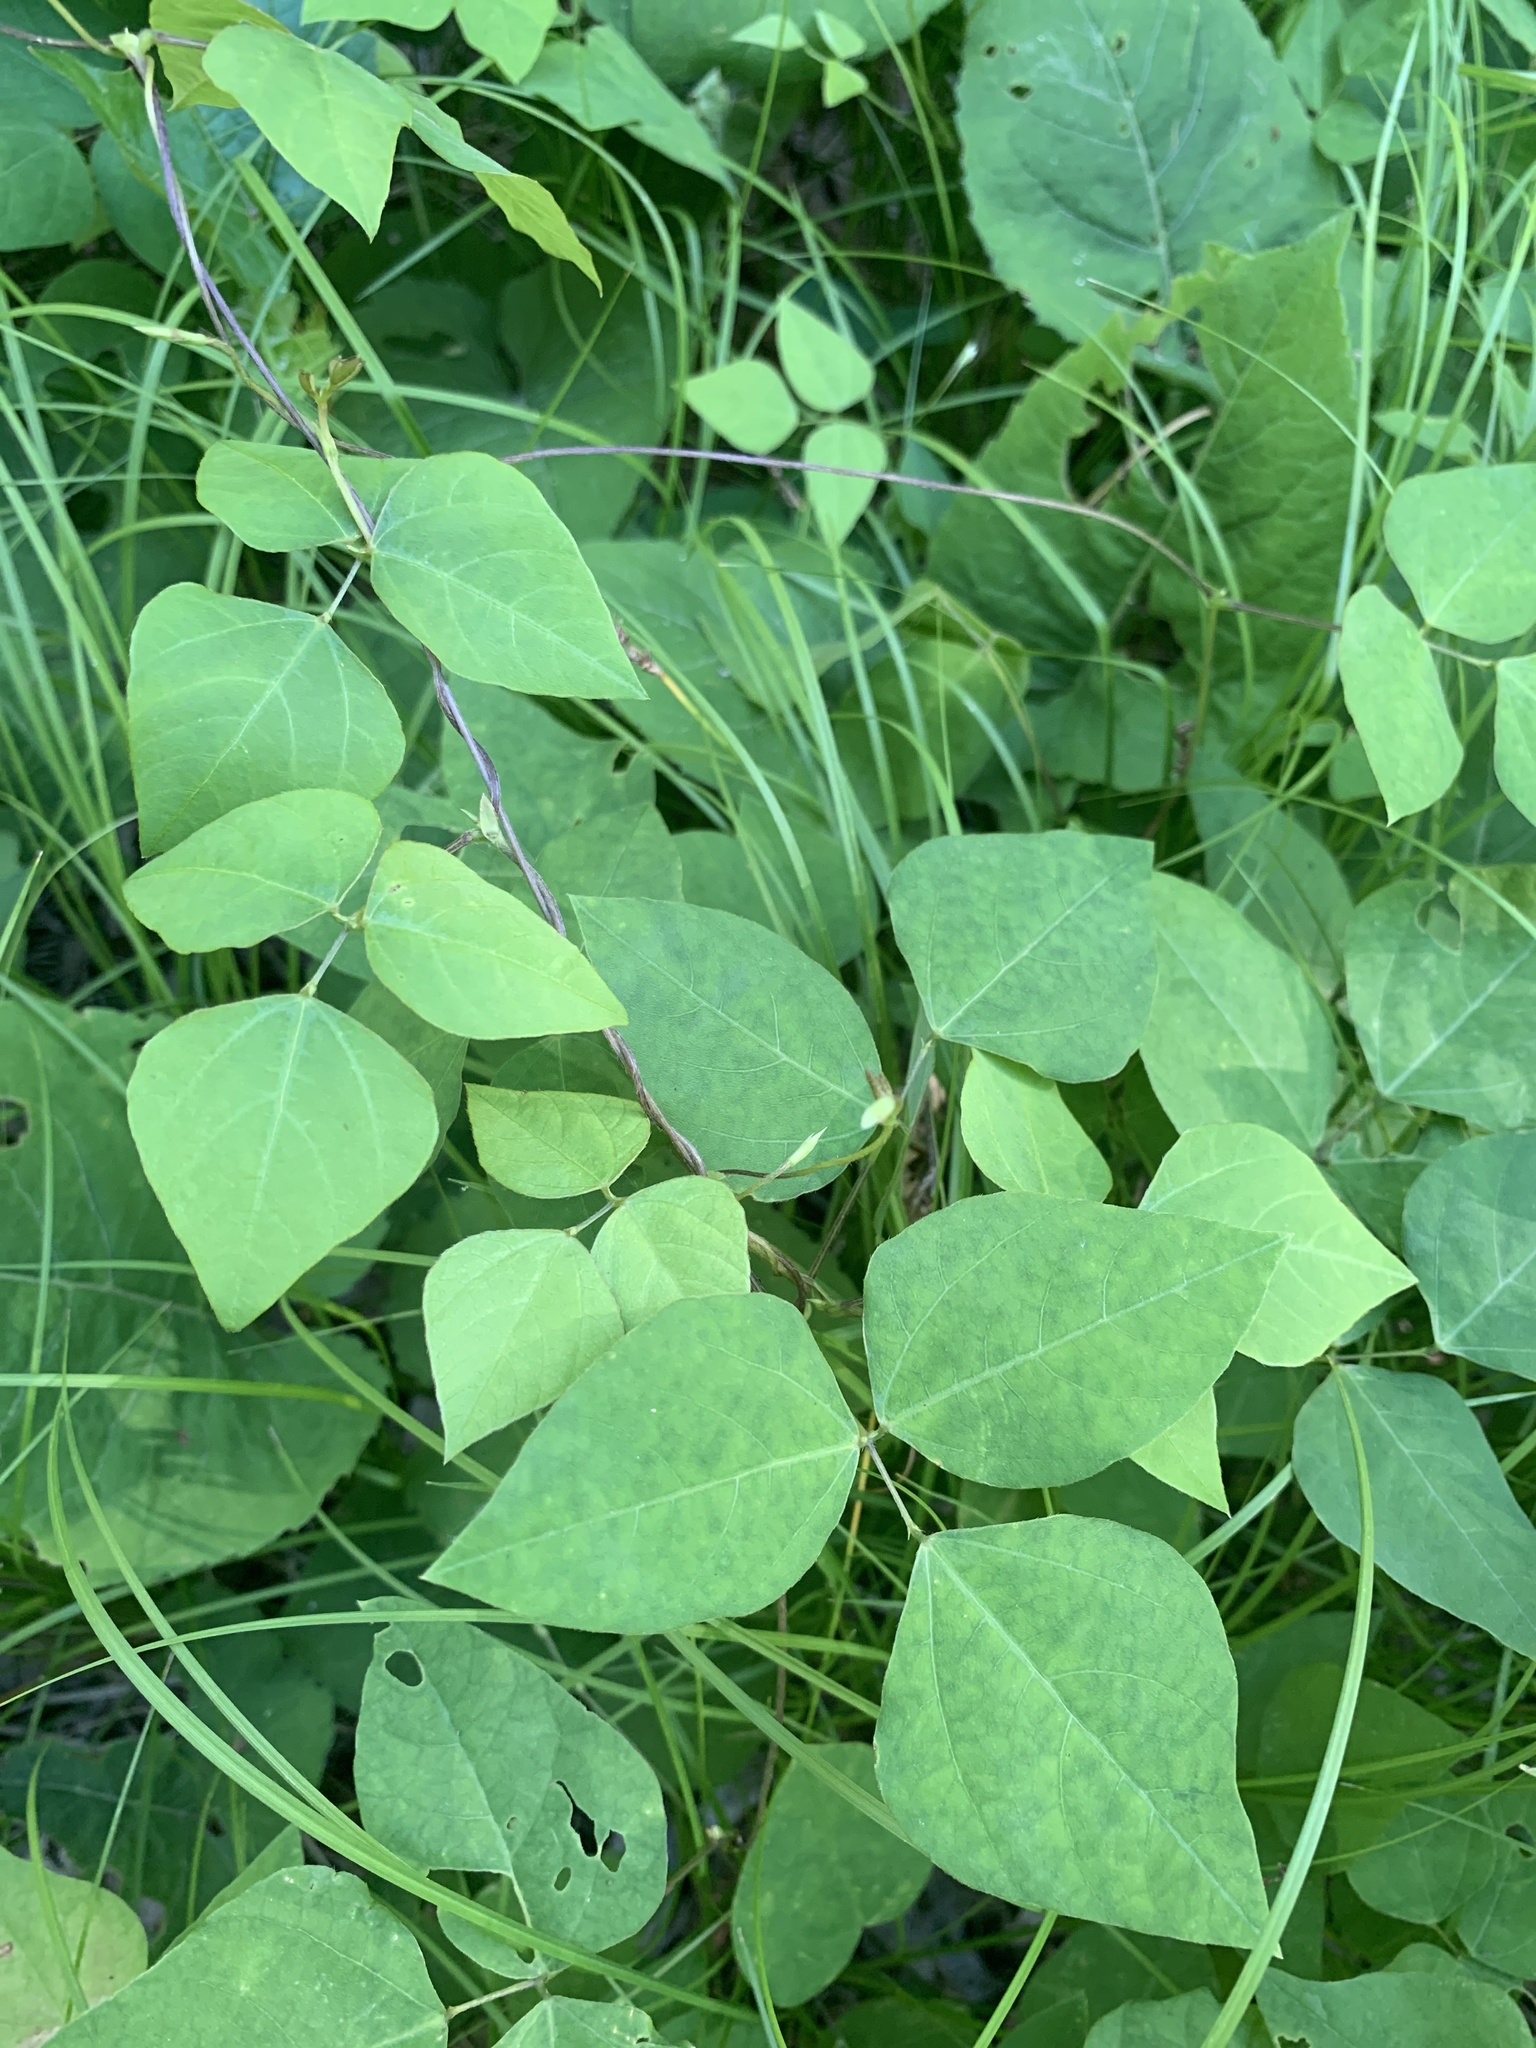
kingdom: Plantae
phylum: Tracheophyta
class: Magnoliopsida
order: Fabales
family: Fabaceae
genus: Amphicarpaea
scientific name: Amphicarpaea bracteata
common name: American hog peanut
